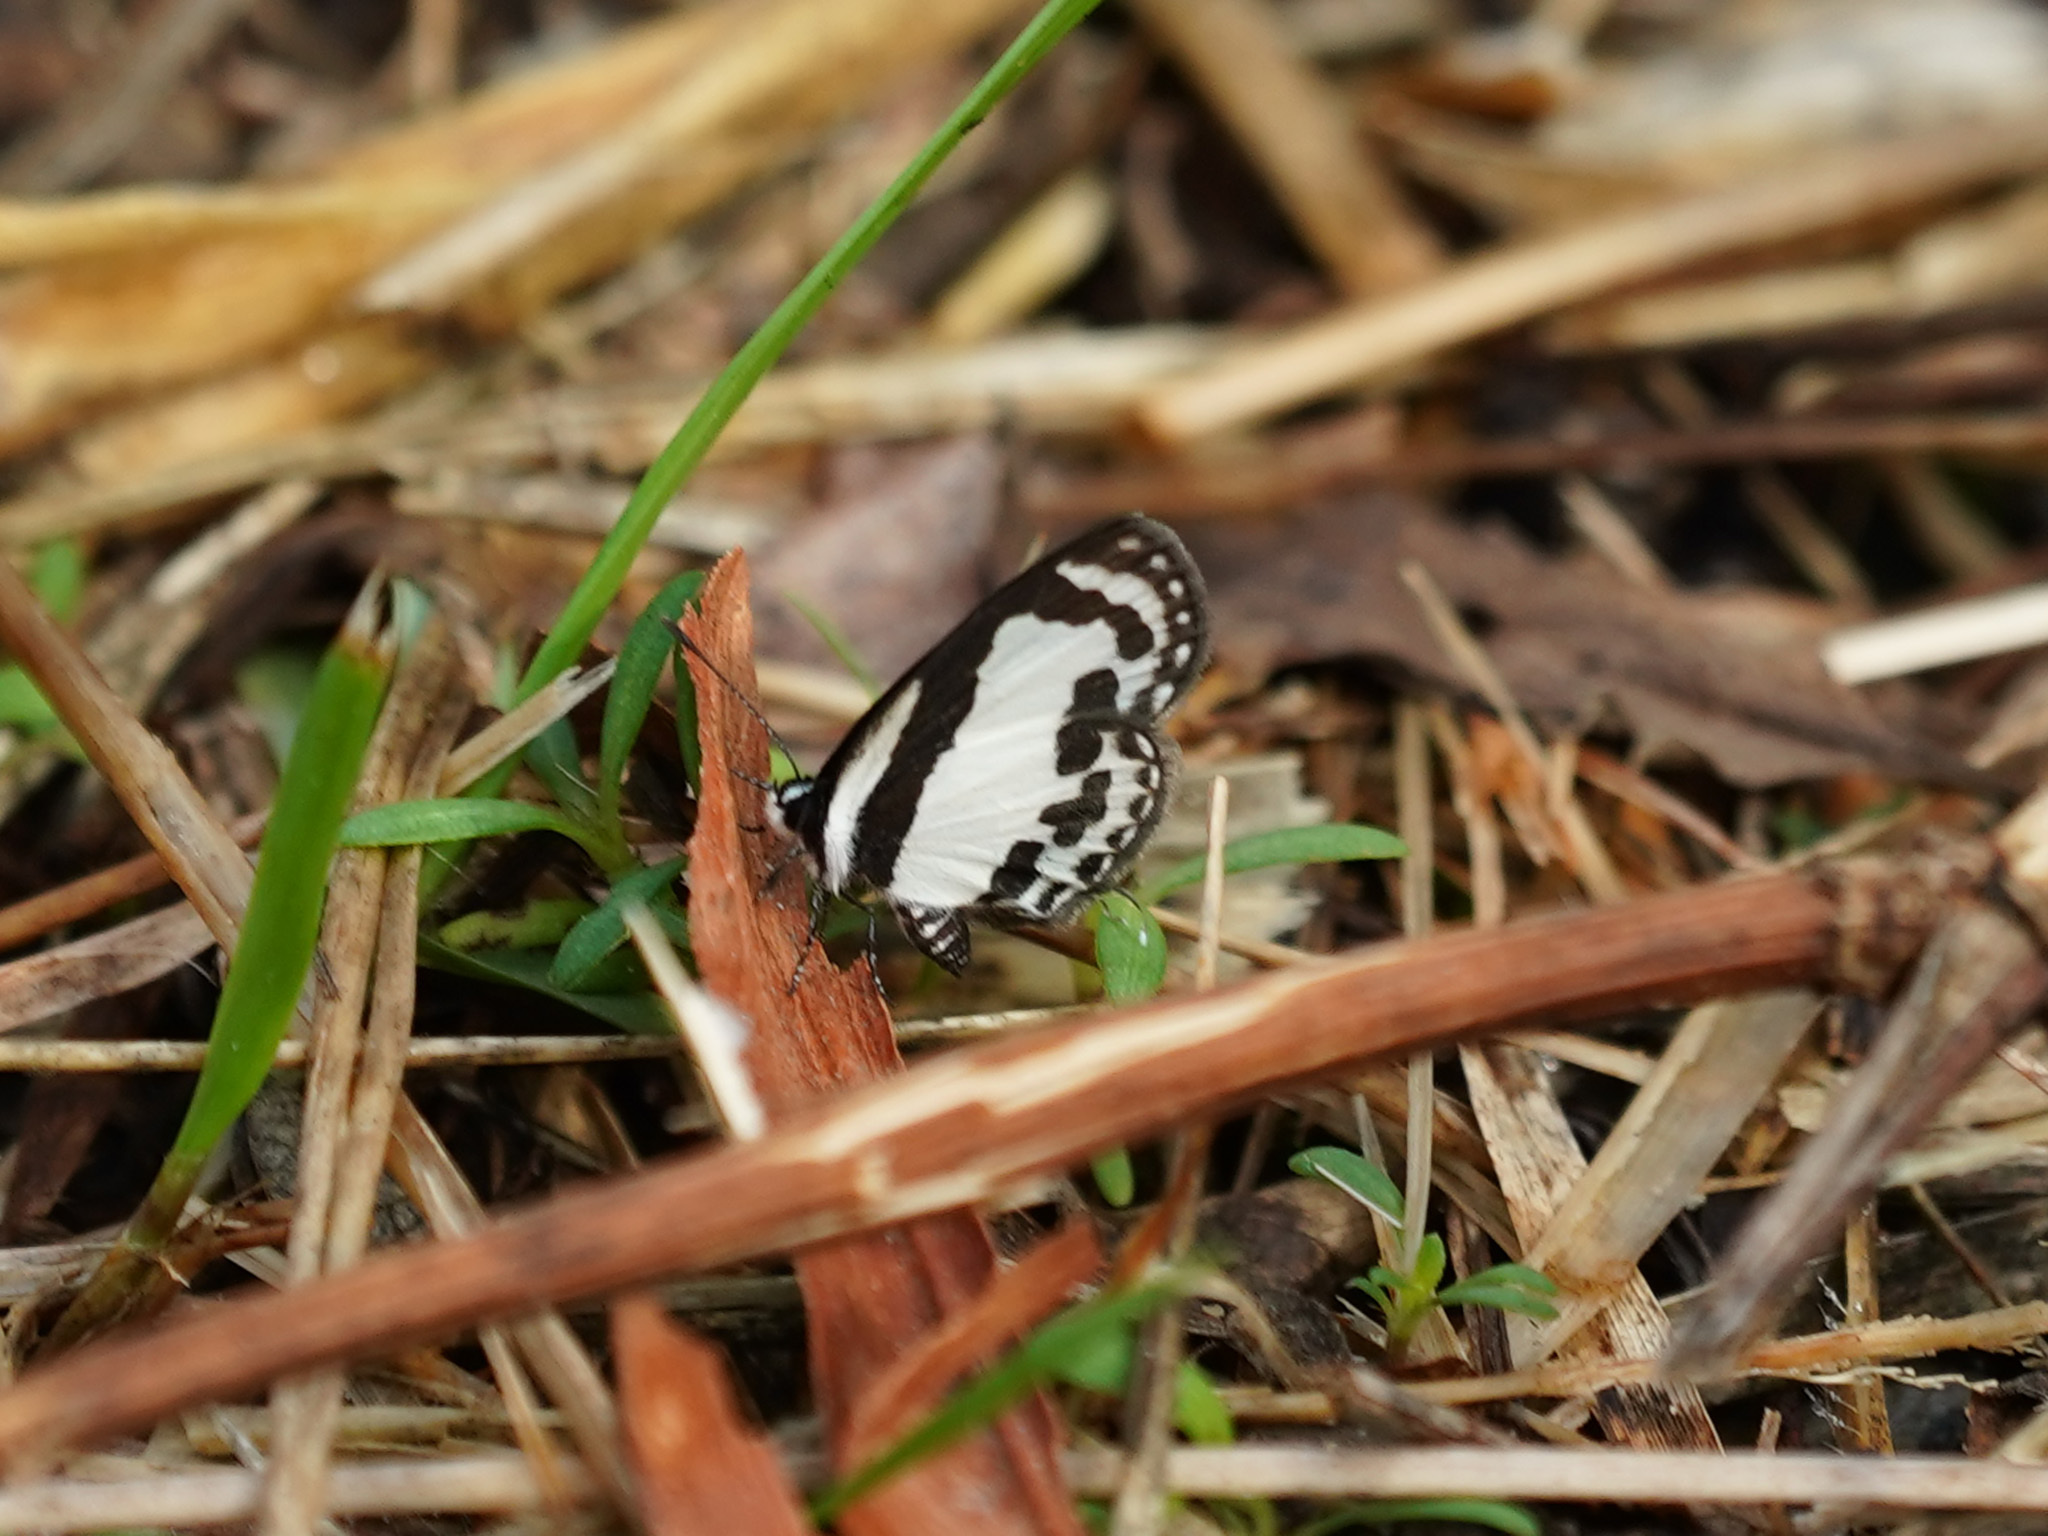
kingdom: Animalia
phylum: Arthropoda
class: Insecta
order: Lepidoptera
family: Lycaenidae
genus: Caleta
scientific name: Caleta roxus
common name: Straight pierrot
